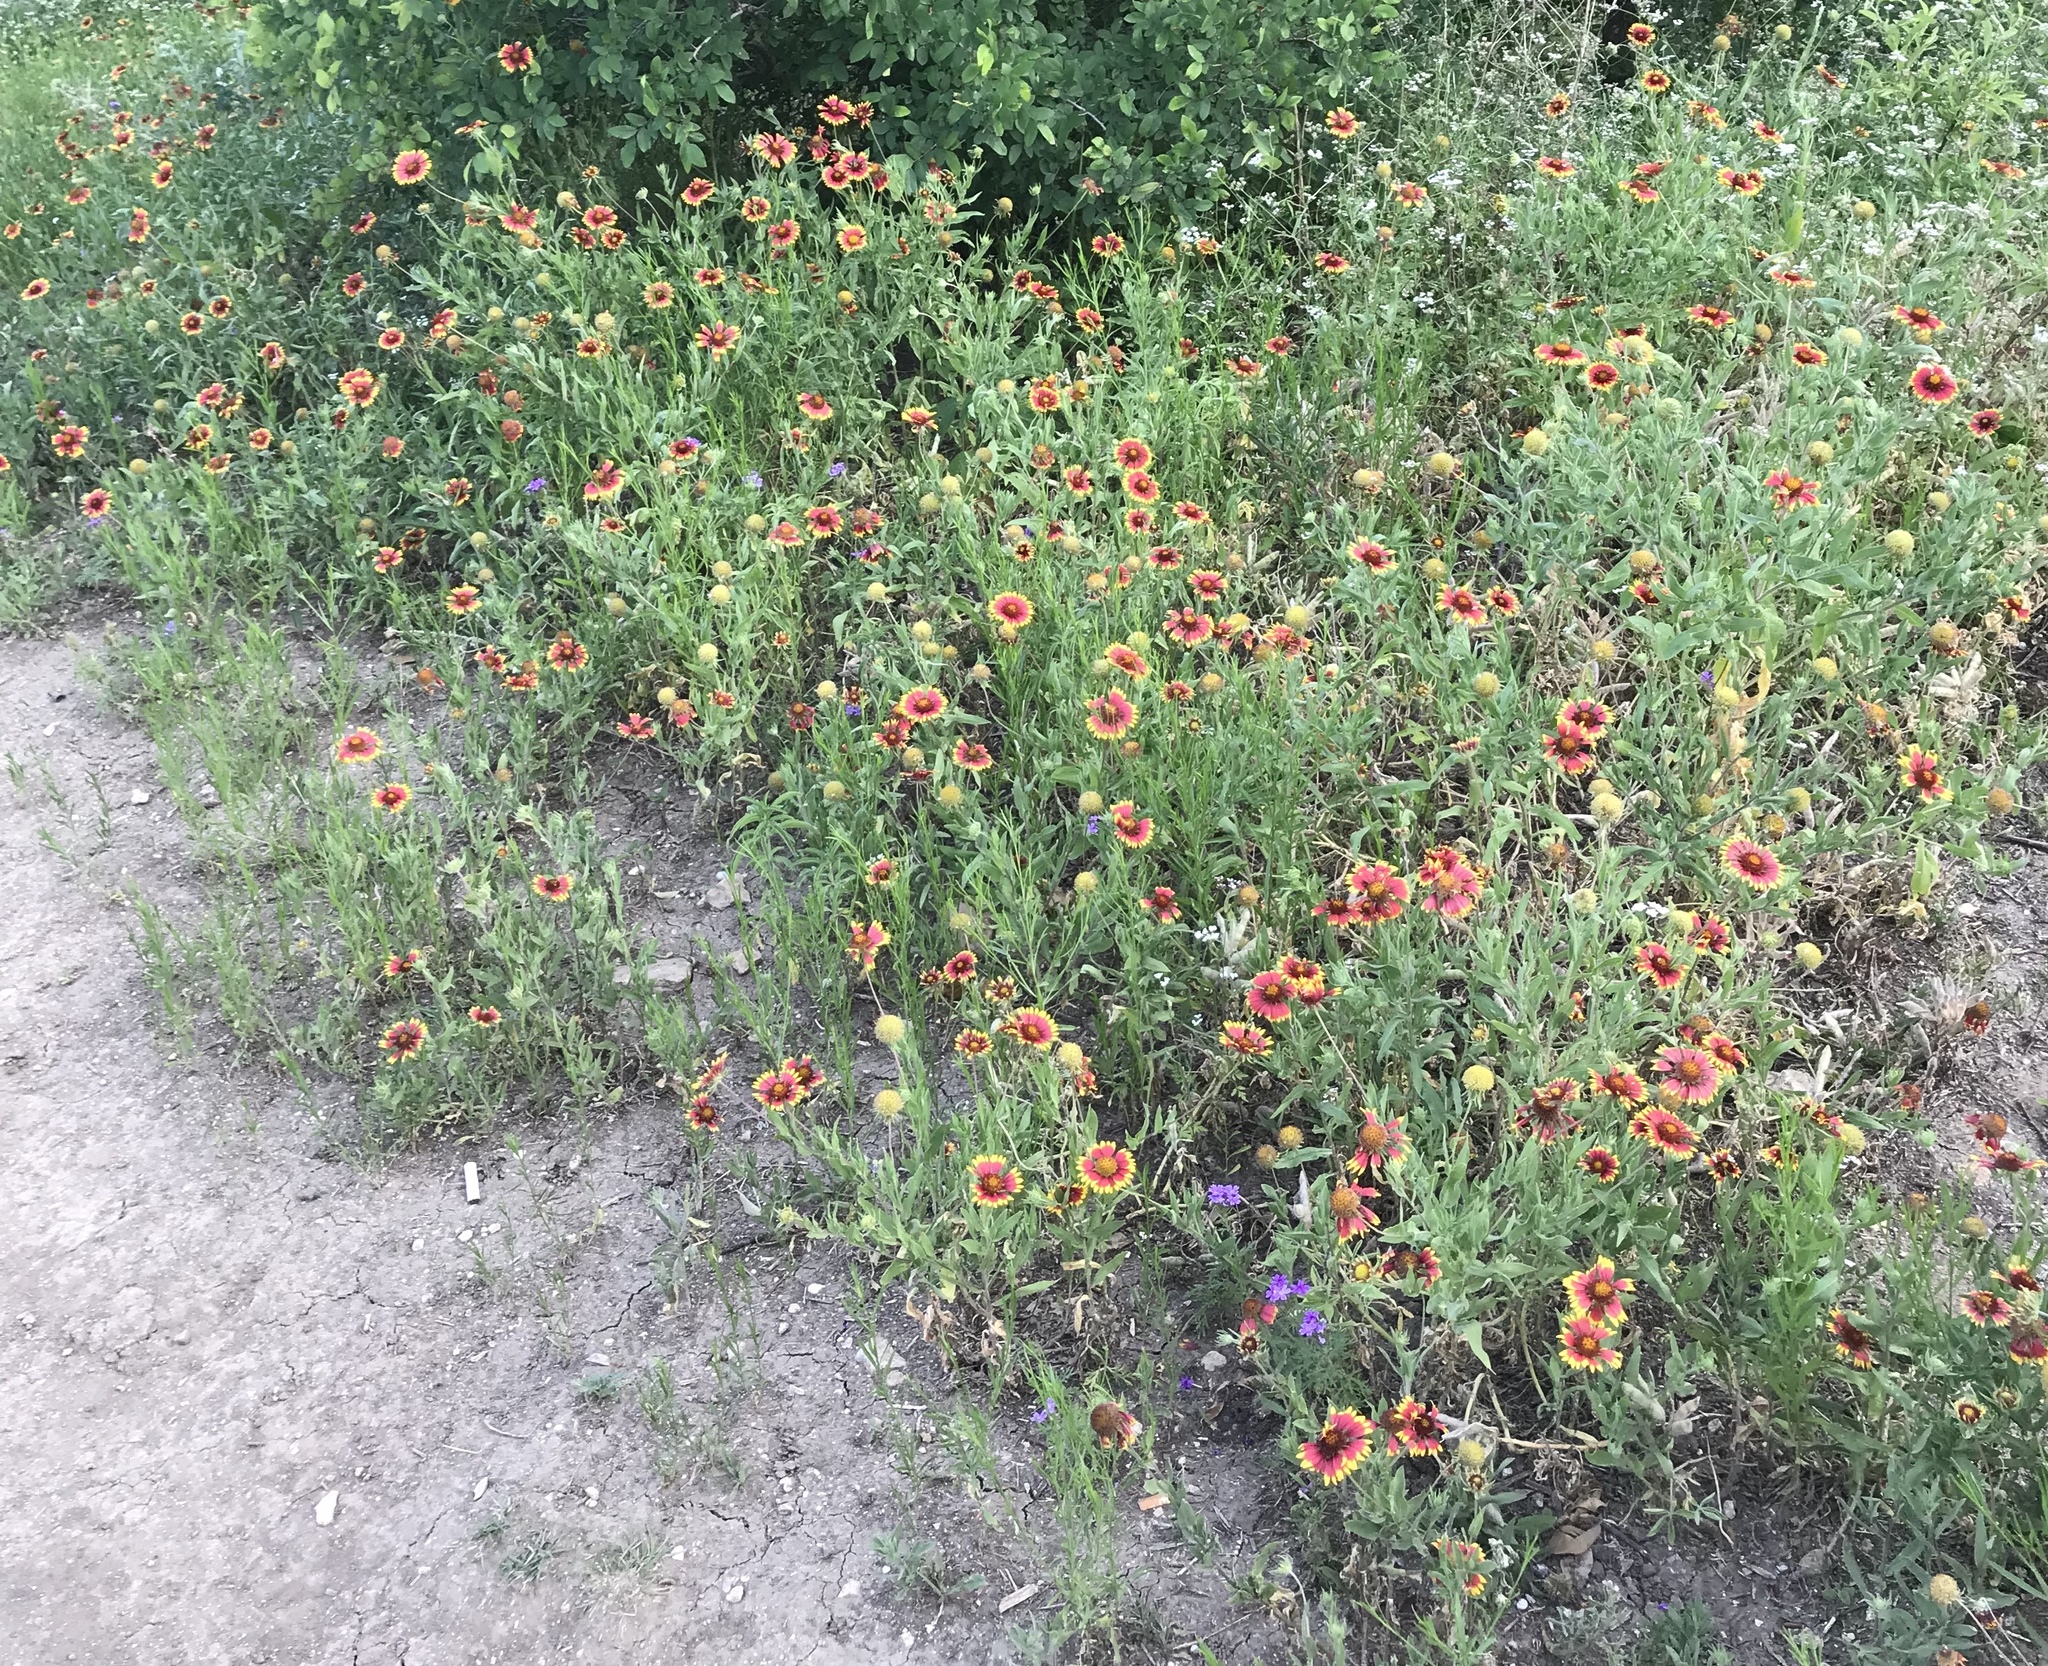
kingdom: Plantae
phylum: Tracheophyta
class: Magnoliopsida
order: Asterales
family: Asteraceae
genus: Gaillardia
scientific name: Gaillardia pulchella
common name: Firewheel
